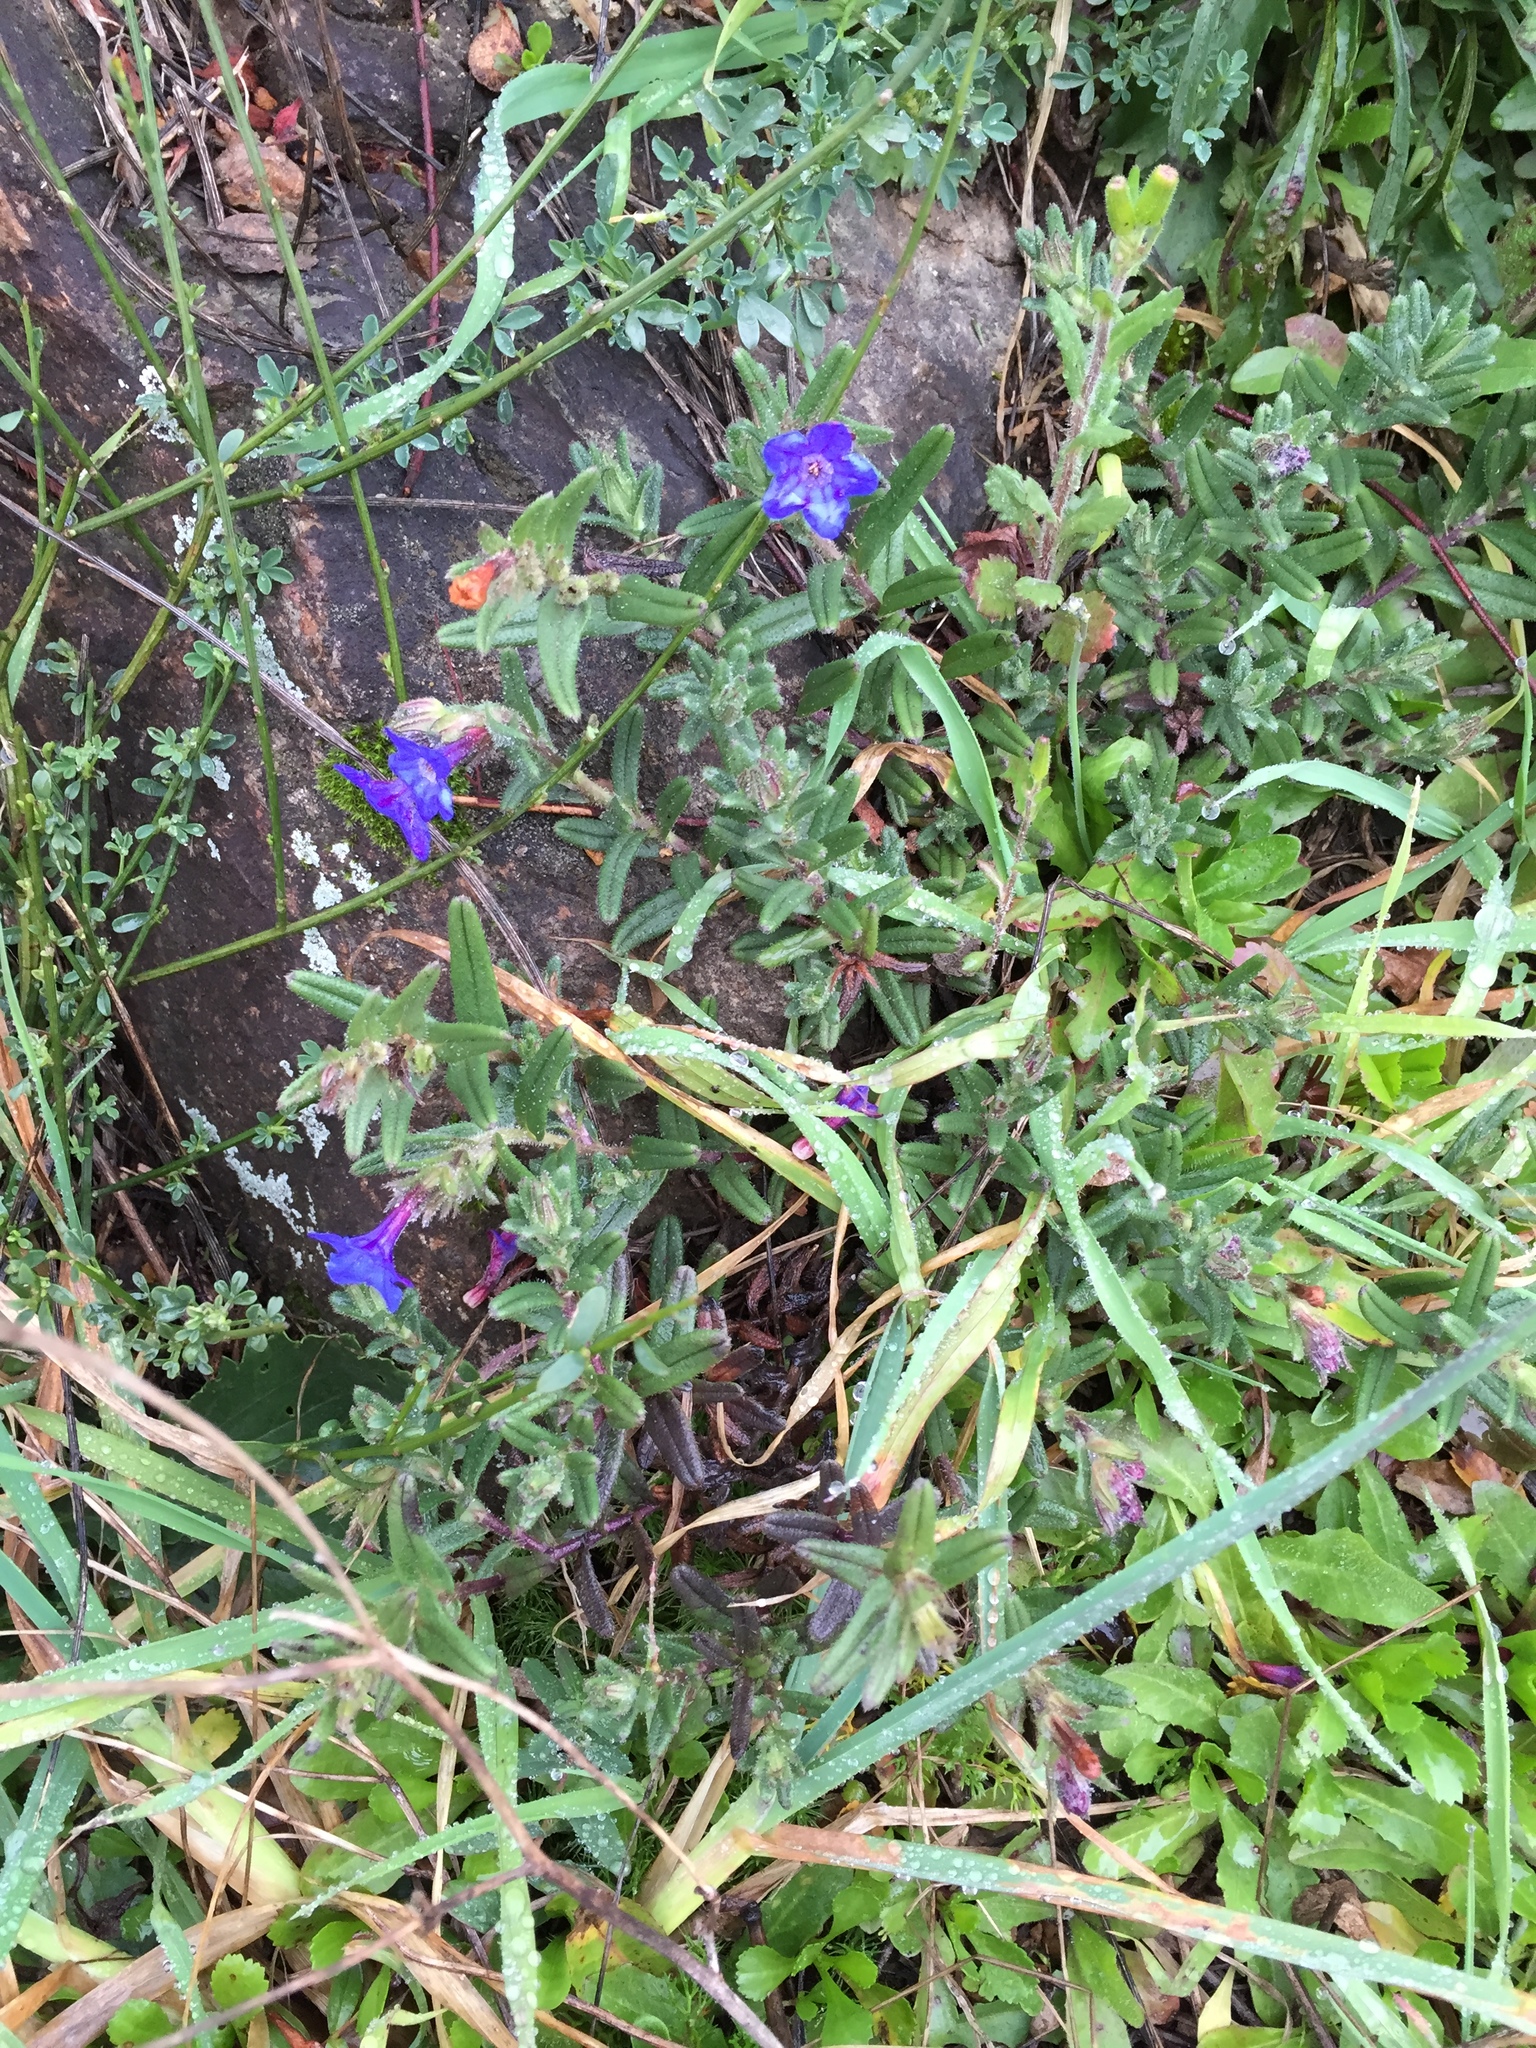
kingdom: Plantae
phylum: Tracheophyta
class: Magnoliopsida
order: Boraginales
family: Boraginaceae
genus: Glandora
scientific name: Glandora prostrata
